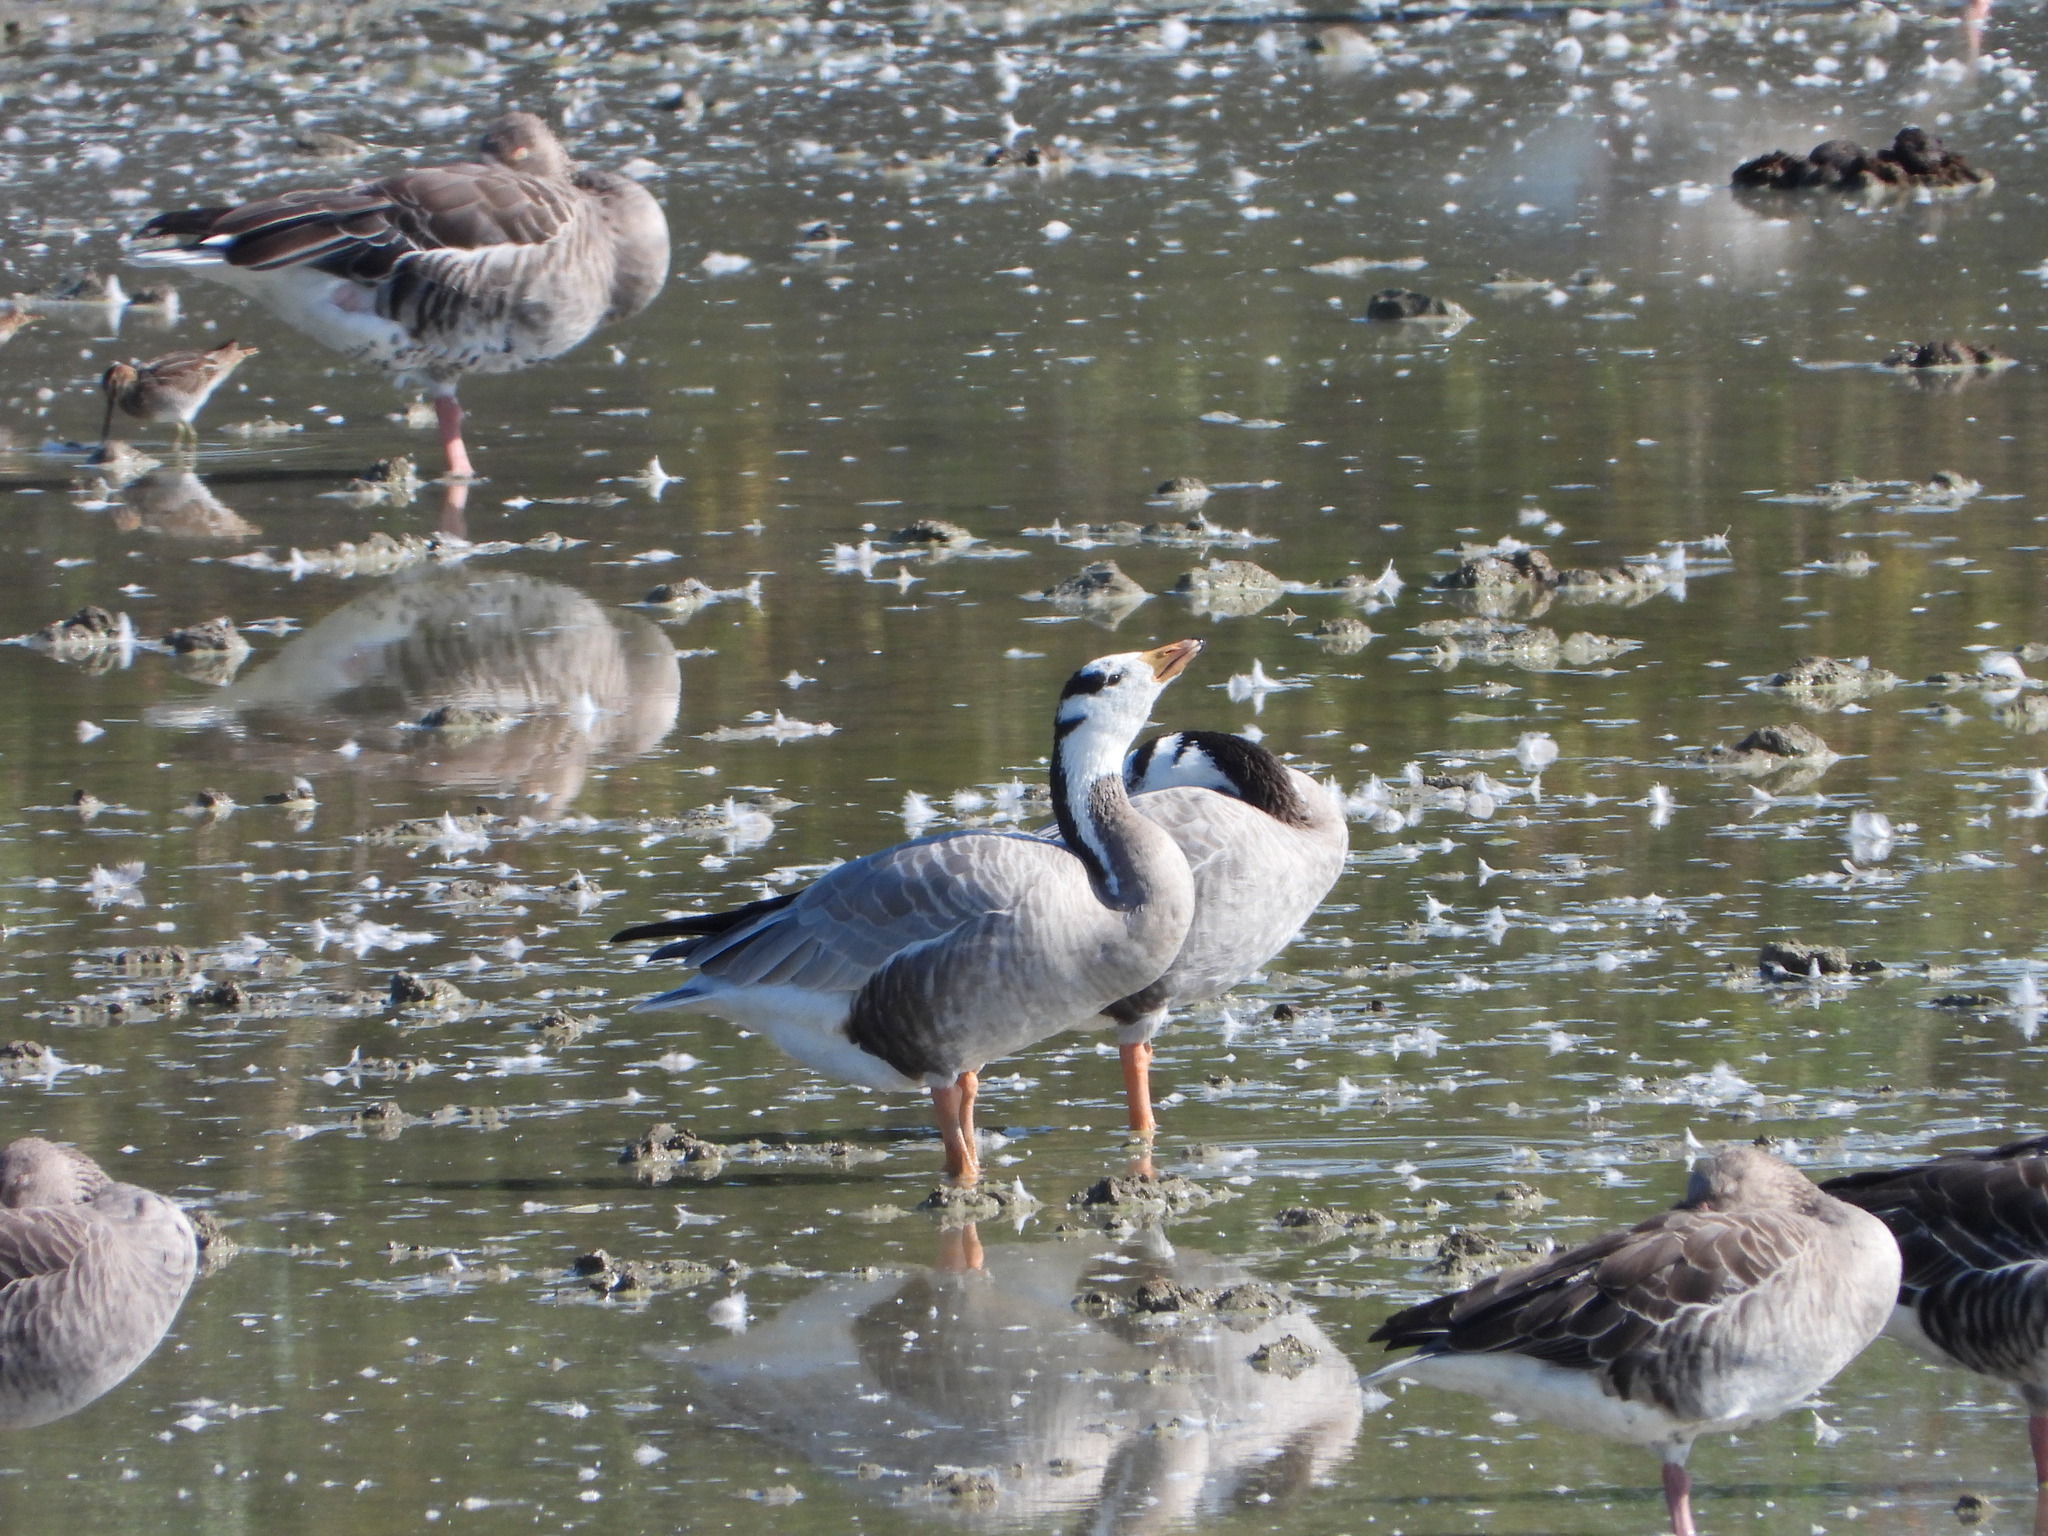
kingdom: Animalia
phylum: Chordata
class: Aves
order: Anseriformes
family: Anatidae
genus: Anser
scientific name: Anser indicus
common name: Bar-headed goose
